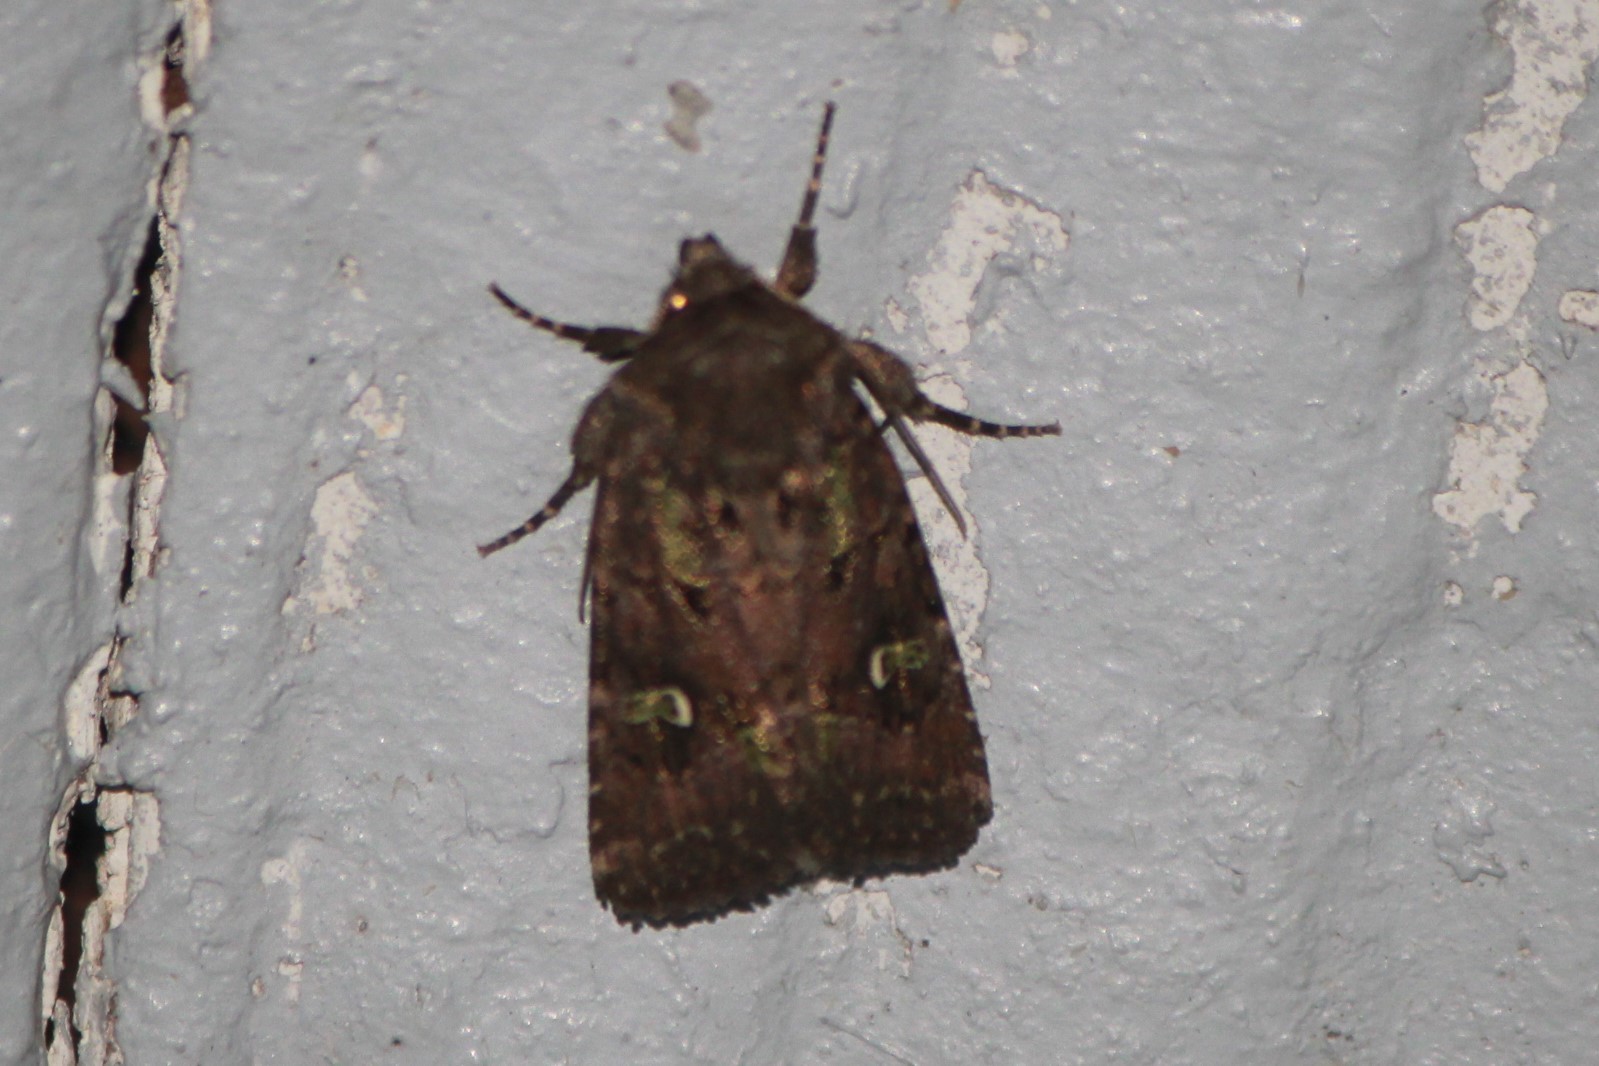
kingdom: Animalia
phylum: Arthropoda
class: Insecta
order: Lepidoptera
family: Noctuidae
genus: Lacinipolia
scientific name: Lacinipolia renigera
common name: Kidney-spotted minor
